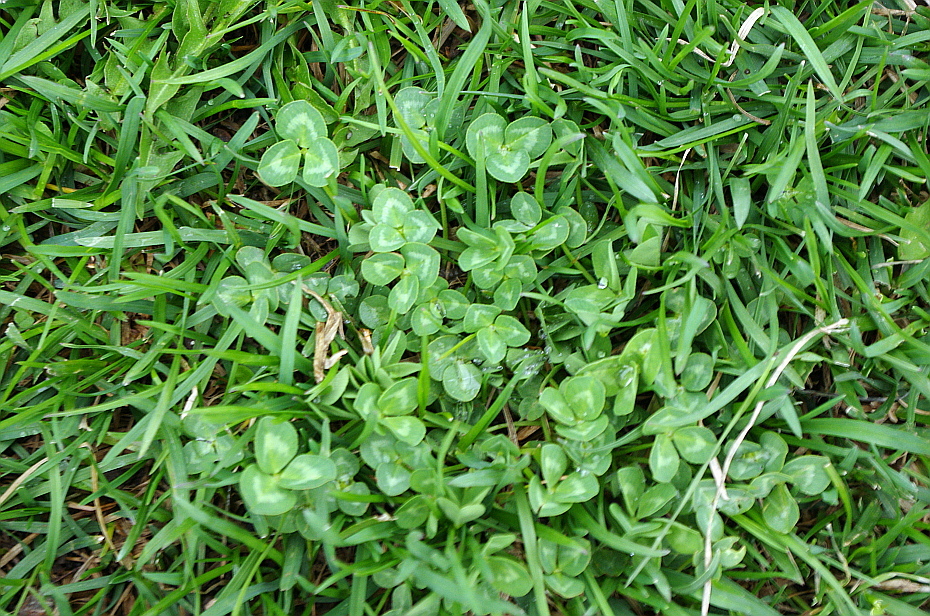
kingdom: Plantae
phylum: Tracheophyta
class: Magnoliopsida
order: Fabales
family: Fabaceae
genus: Trifolium
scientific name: Trifolium repens
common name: White clover
